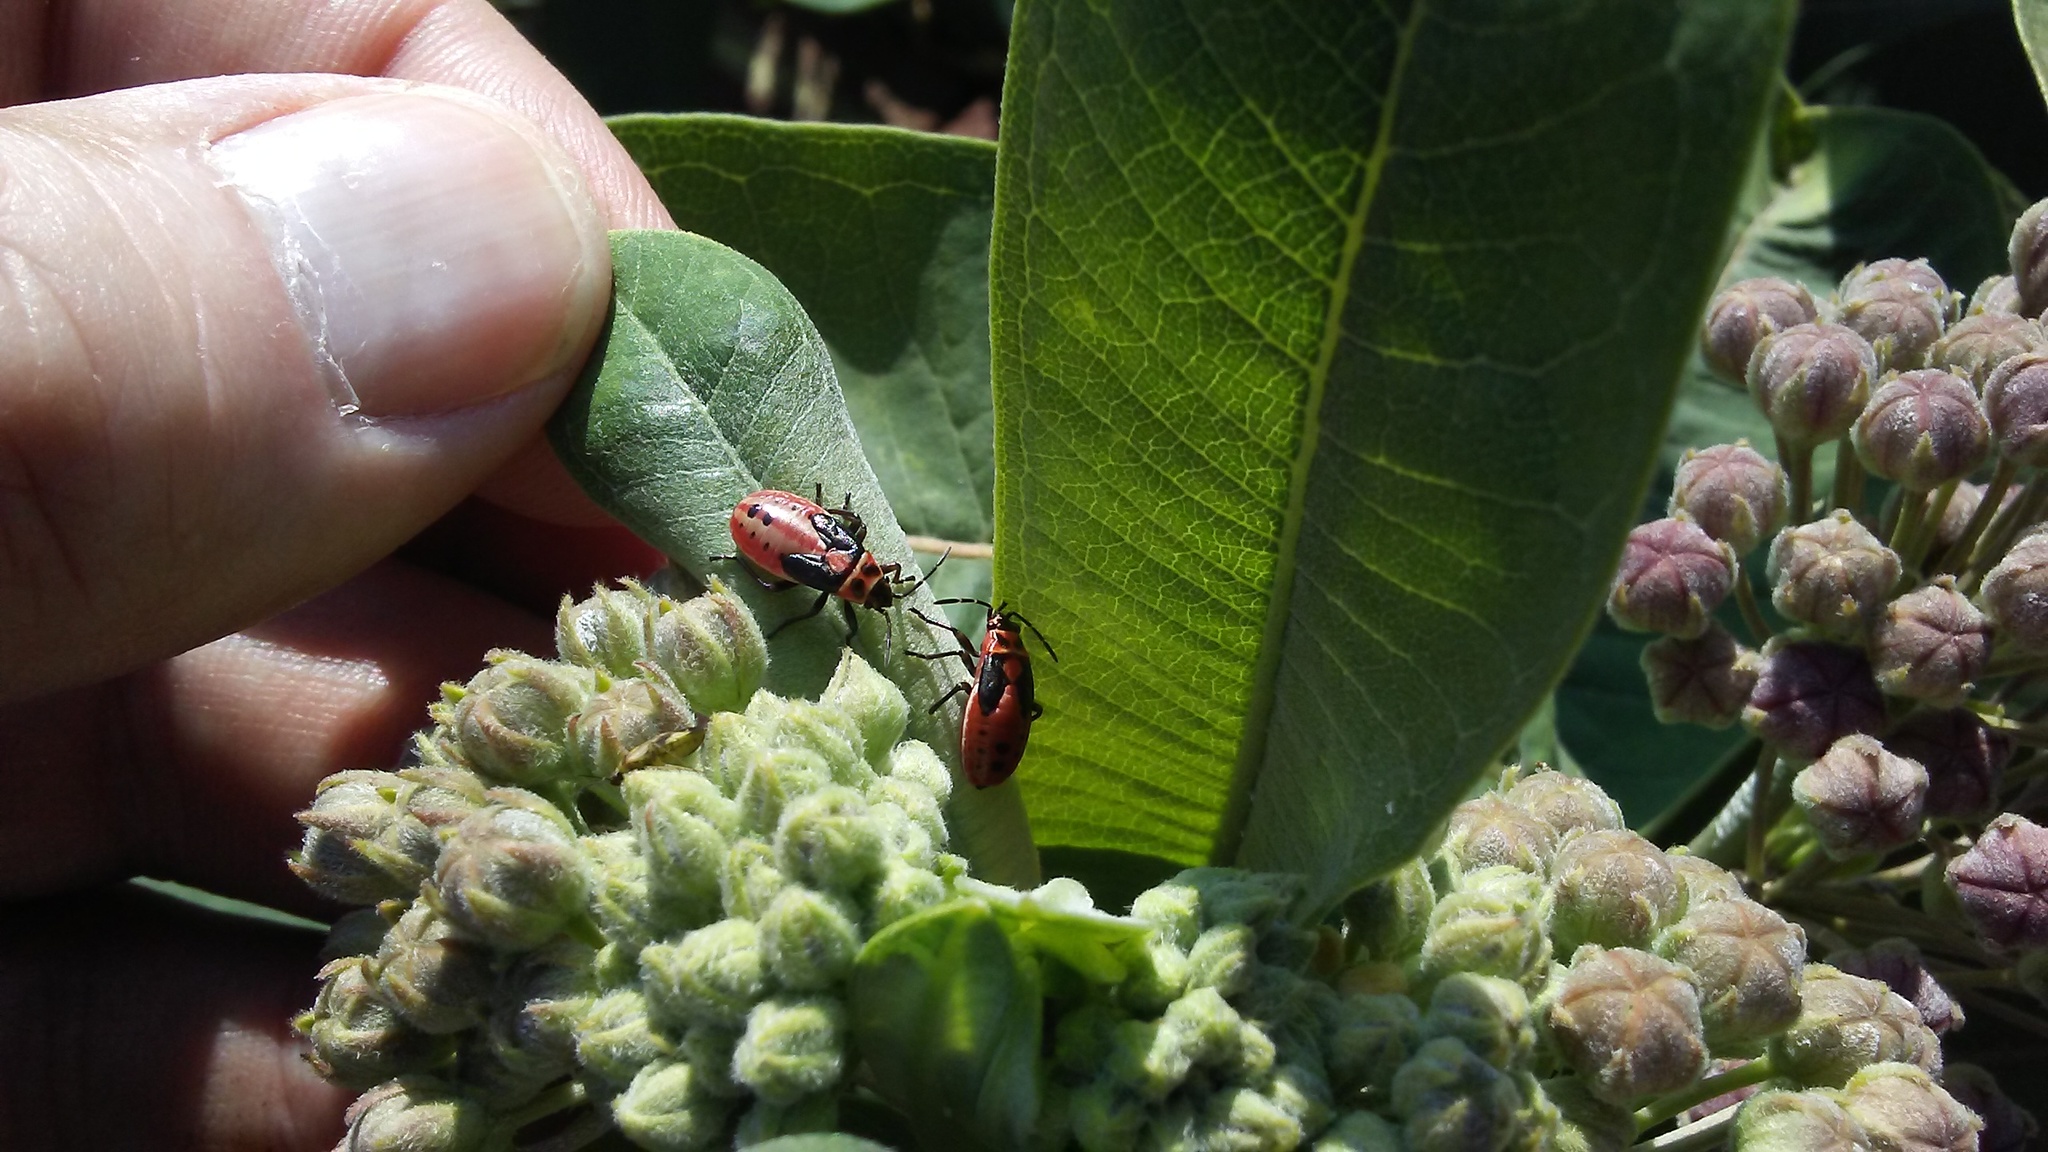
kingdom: Animalia
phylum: Arthropoda
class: Insecta
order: Hemiptera
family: Lygaeidae
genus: Lygaeus
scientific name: Lygaeus kalmii
